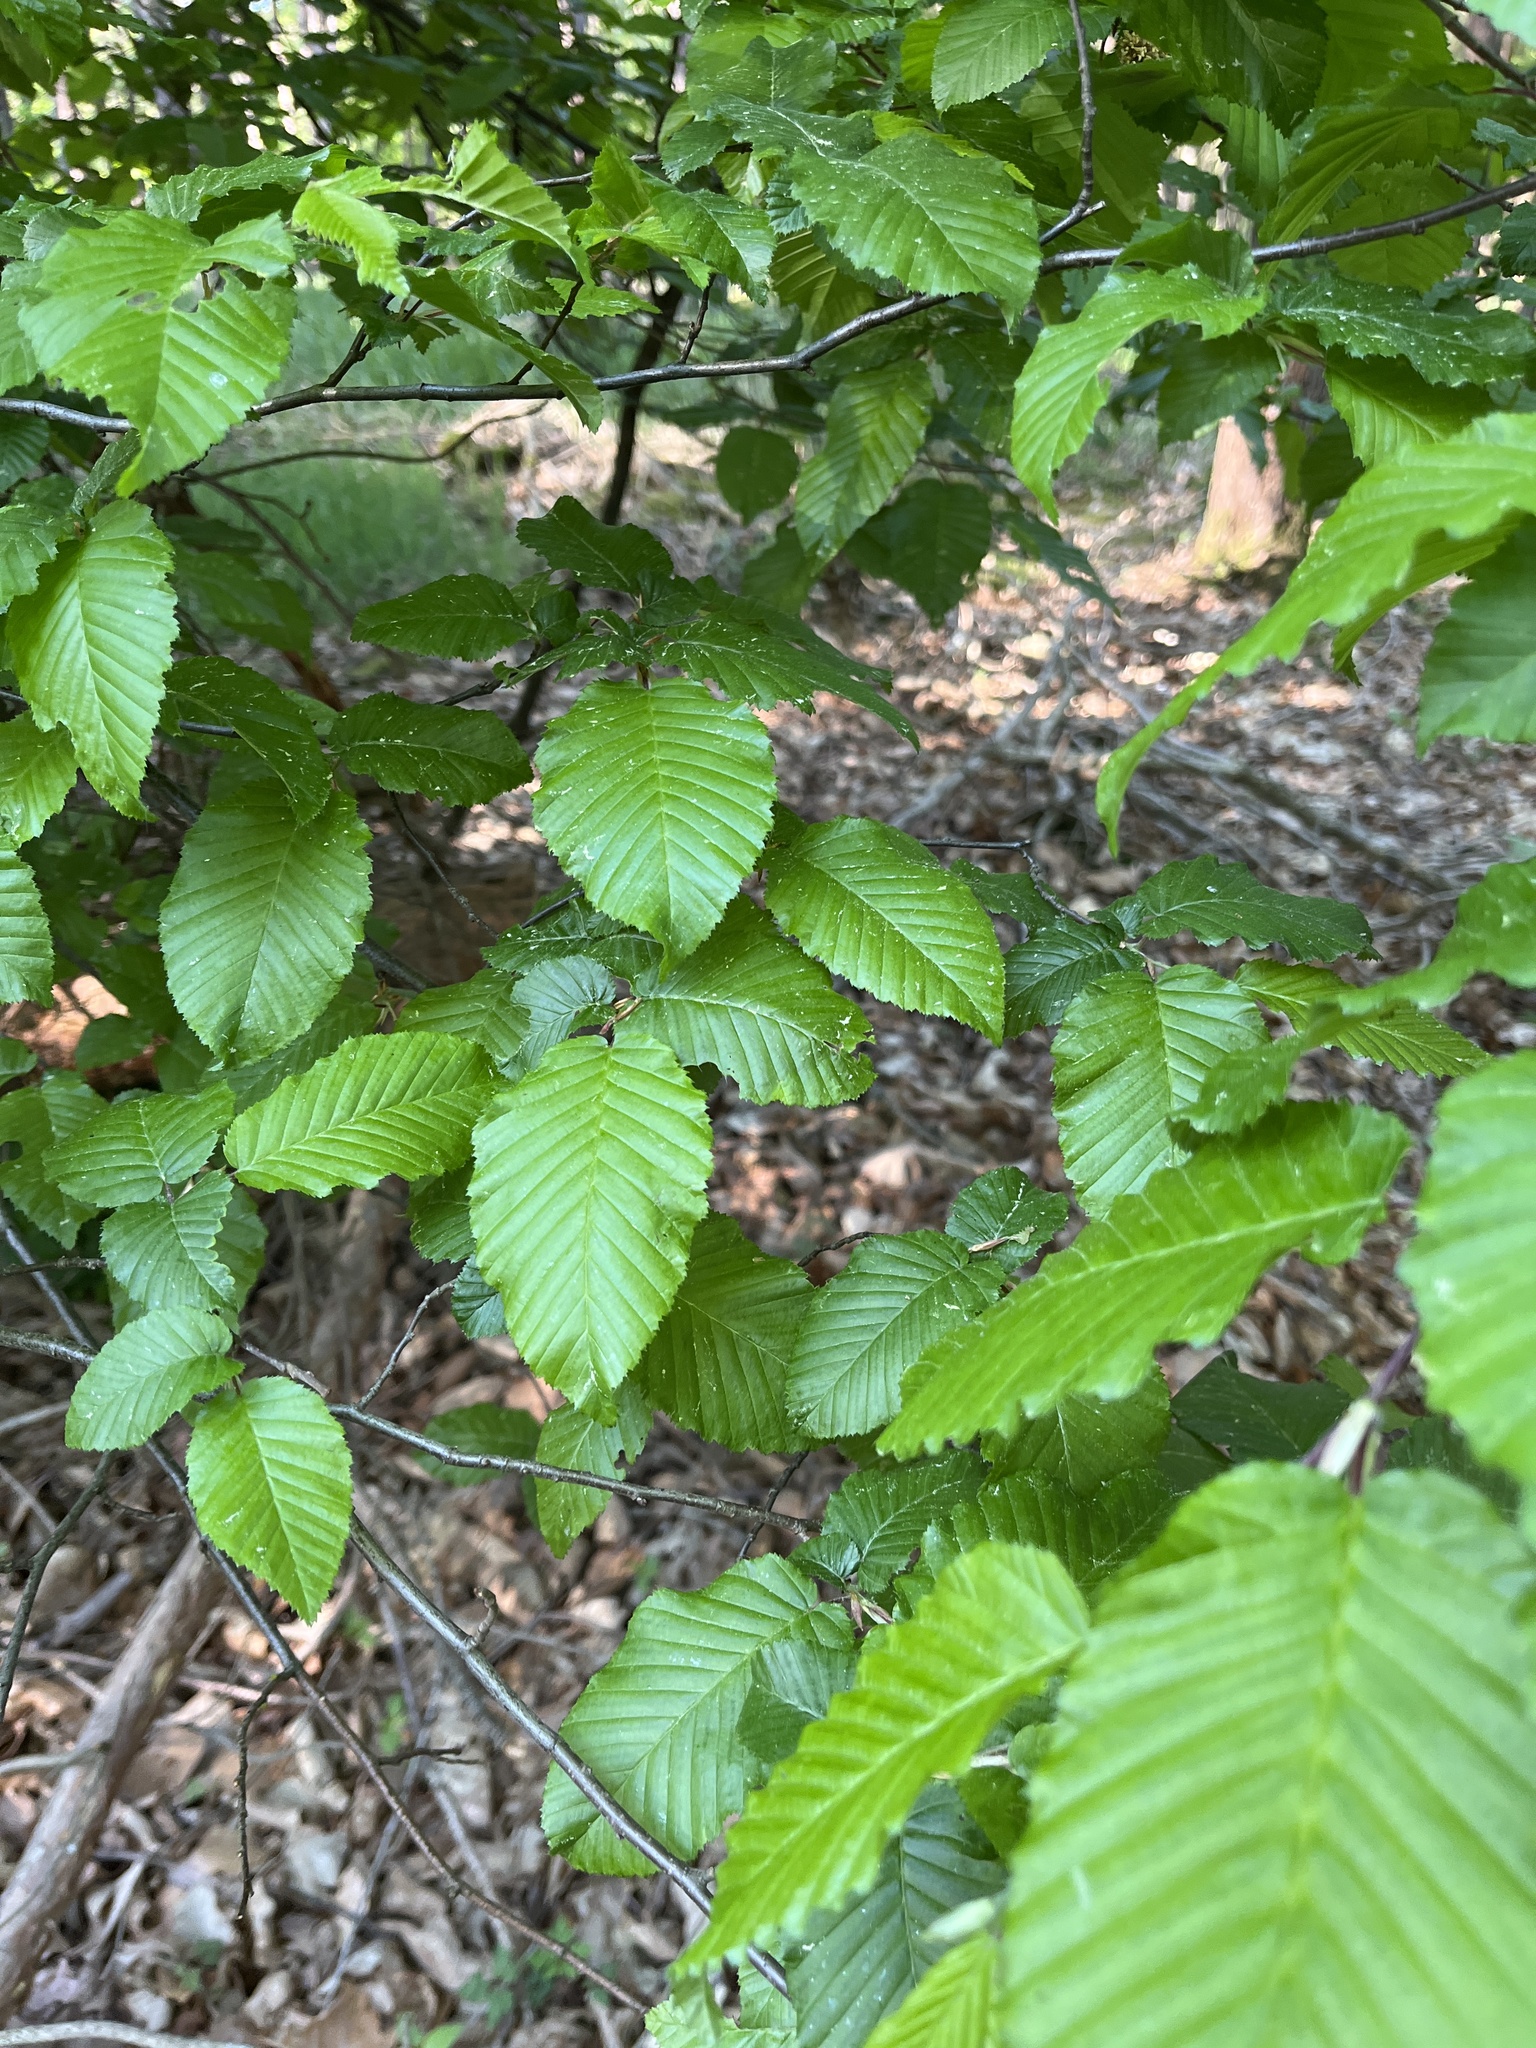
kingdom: Plantae
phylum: Tracheophyta
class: Magnoliopsida
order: Fagales
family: Betulaceae
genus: Carpinus
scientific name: Carpinus betulus
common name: Hornbeam
